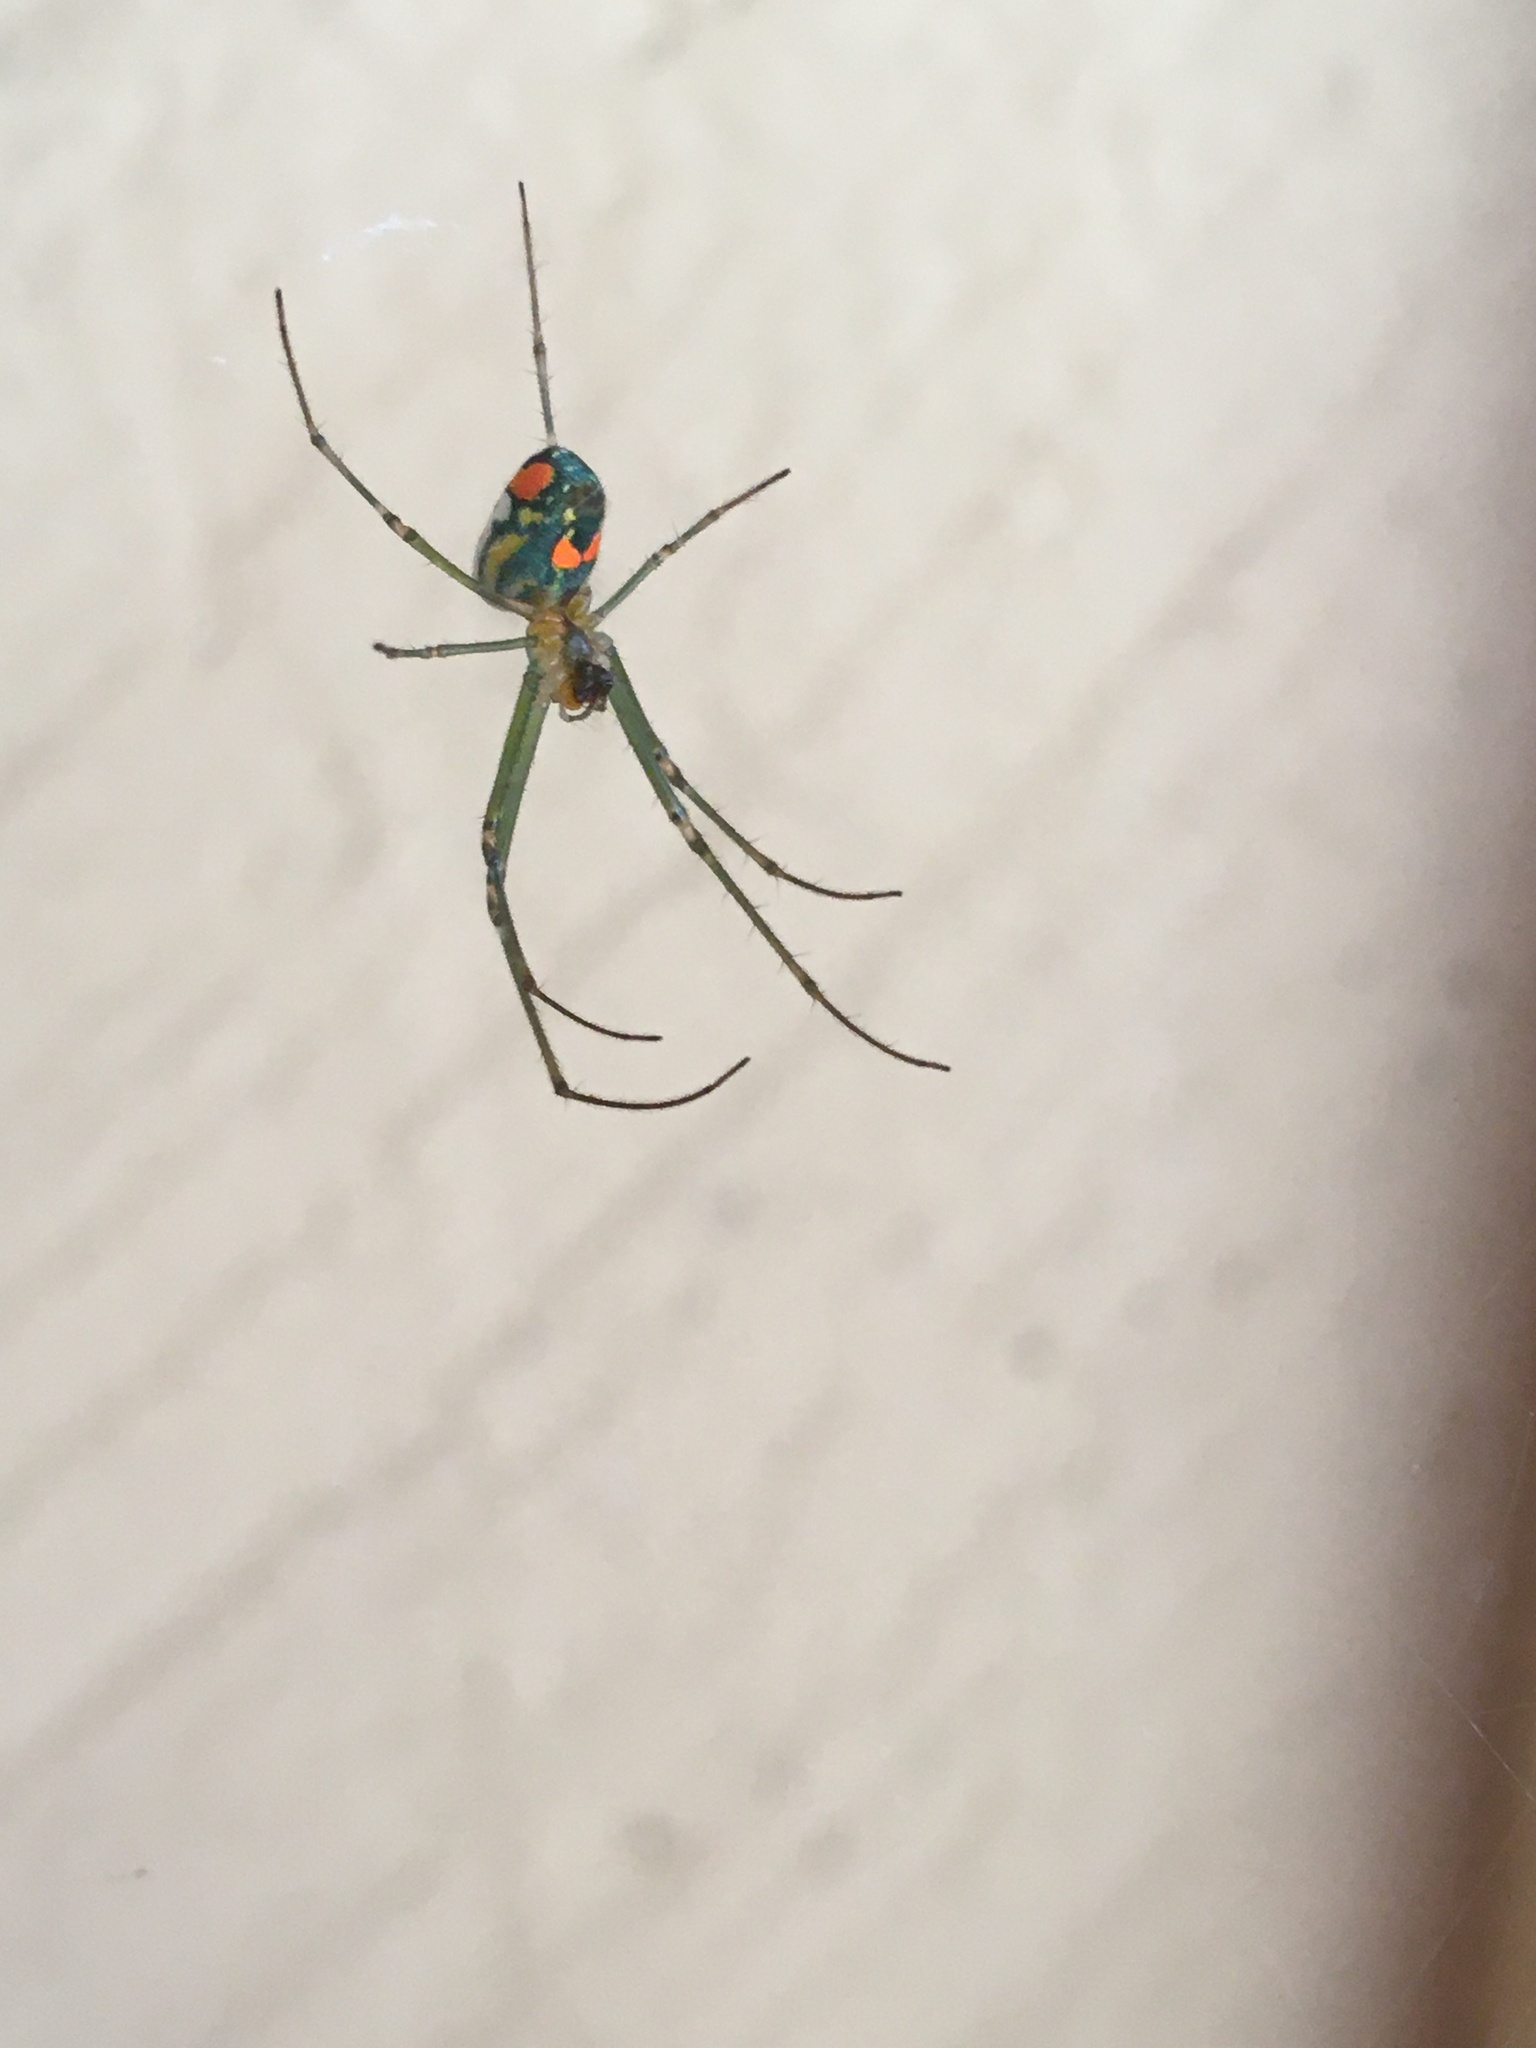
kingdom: Animalia
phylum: Arthropoda
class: Arachnida
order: Araneae
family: Tetragnathidae
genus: Leucauge
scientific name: Leucauge argyrobapta
